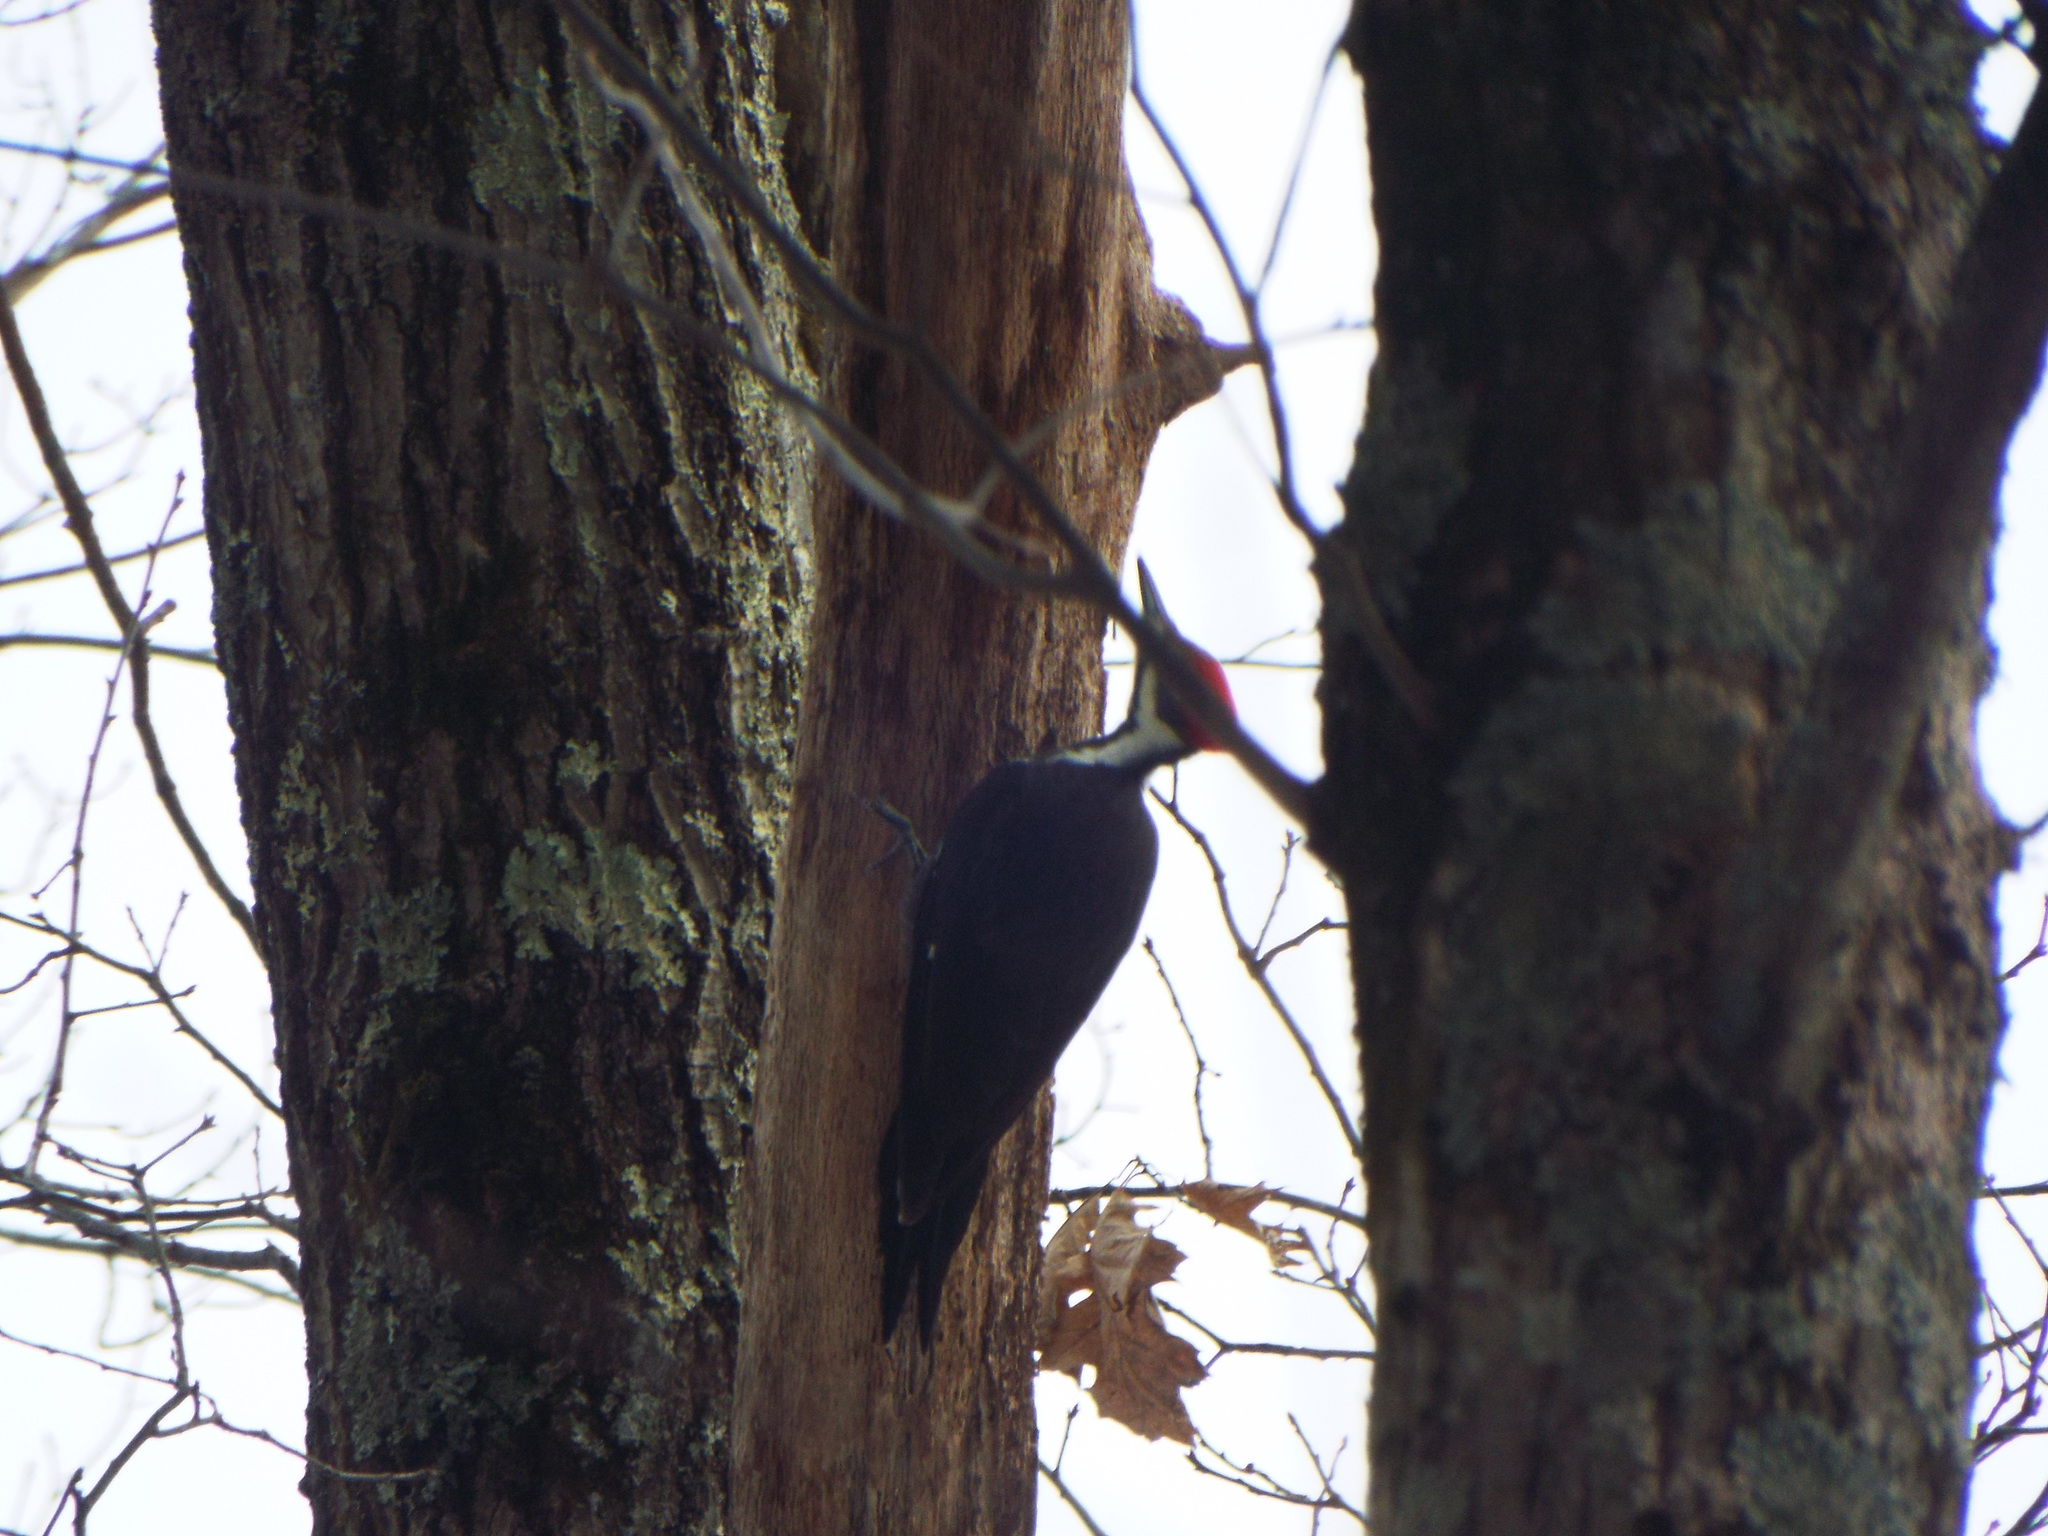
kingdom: Animalia
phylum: Chordata
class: Aves
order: Piciformes
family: Picidae
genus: Dryocopus
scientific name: Dryocopus pileatus
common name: Pileated woodpecker
